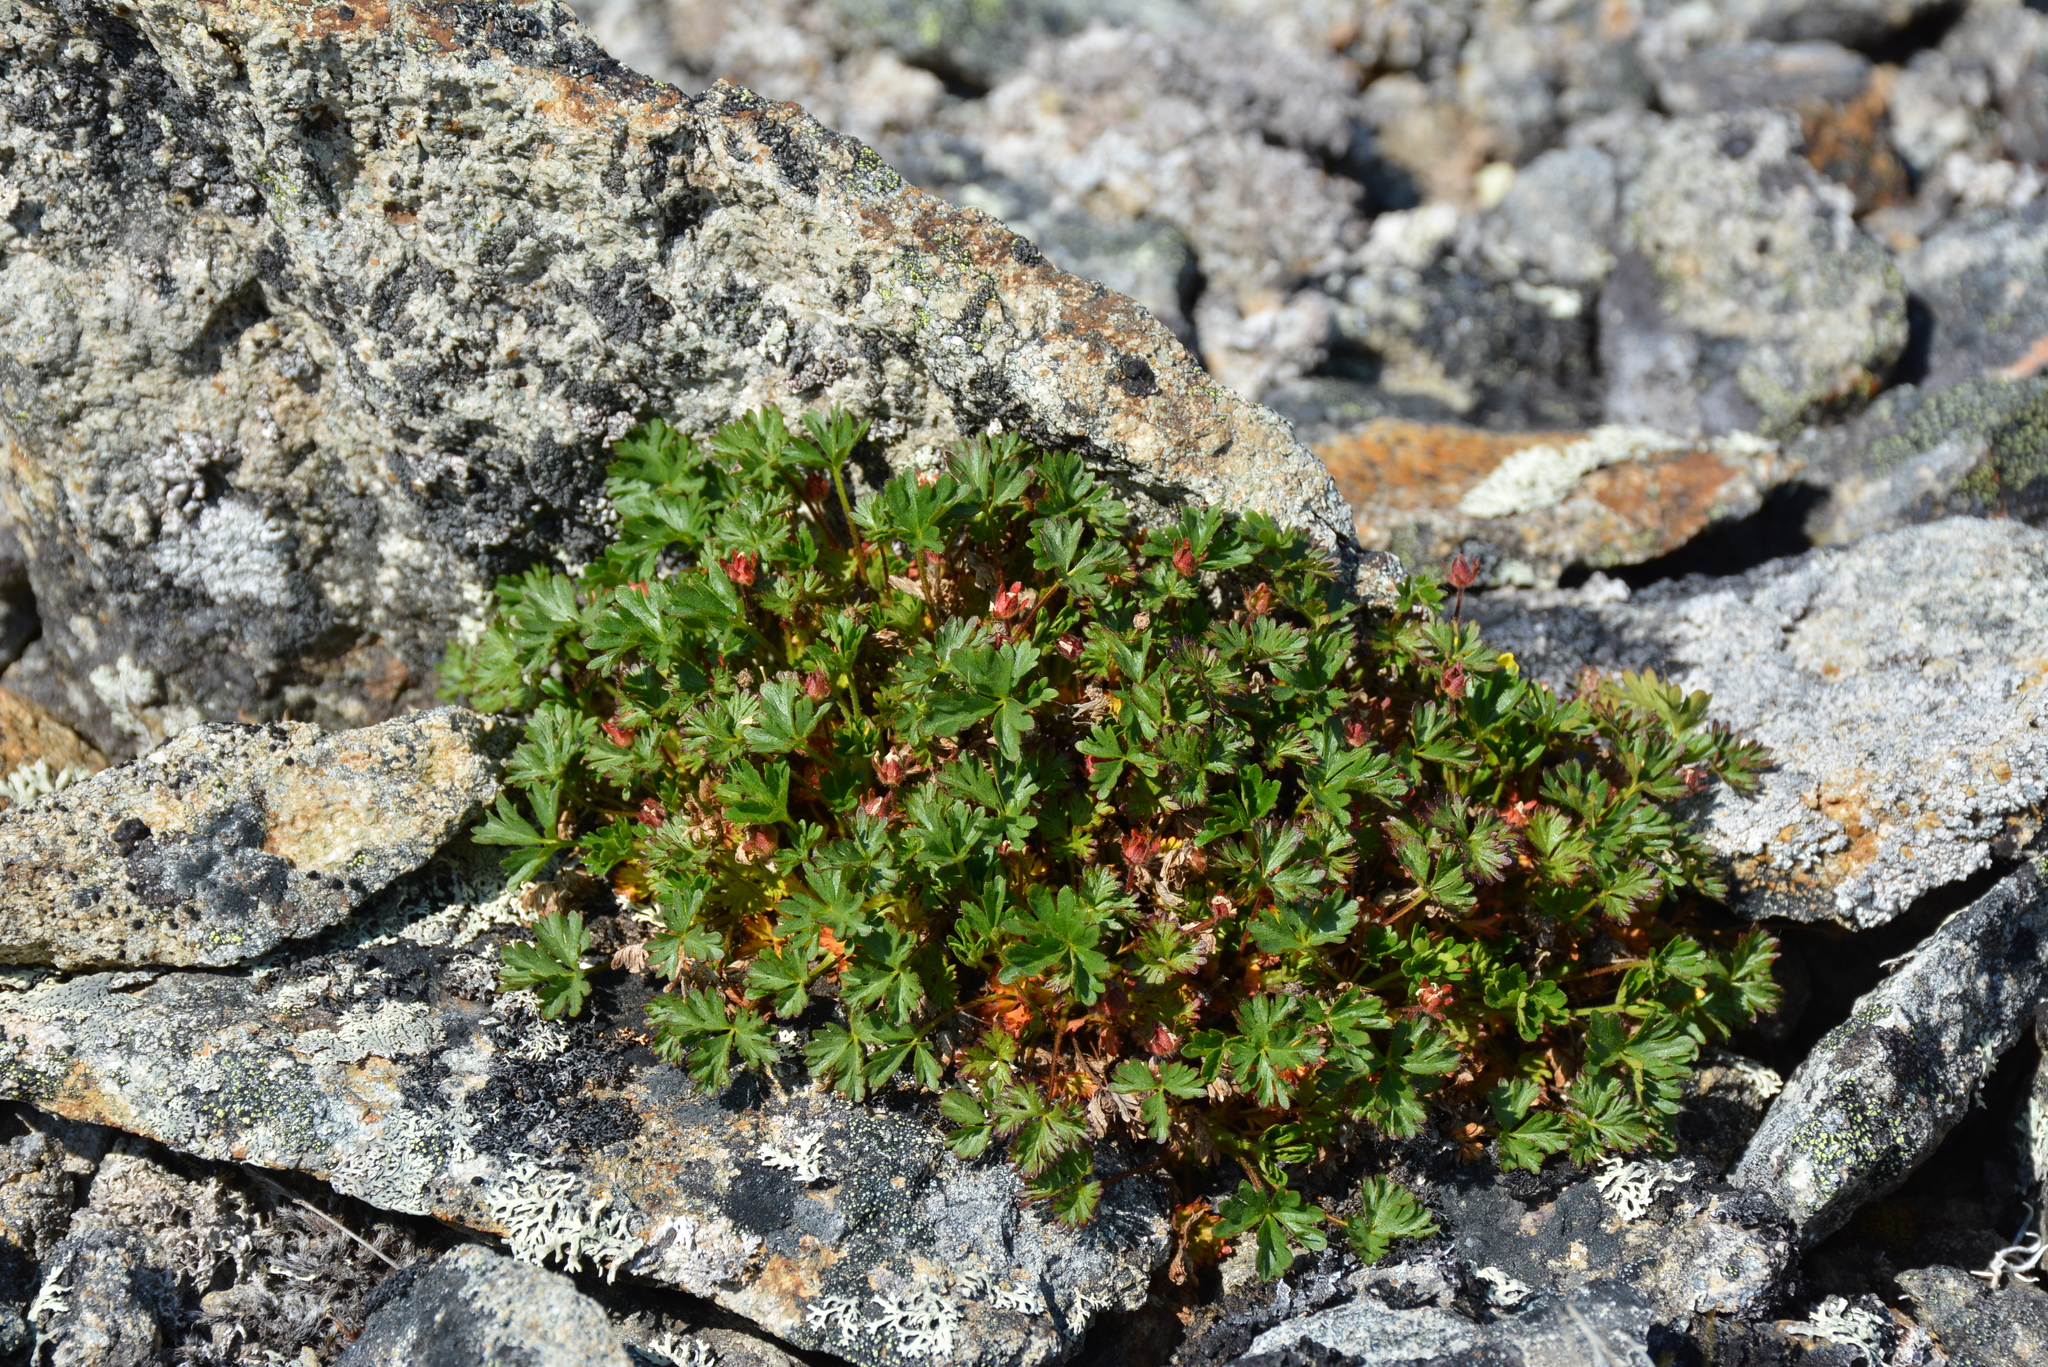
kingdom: Plantae
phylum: Tracheophyta
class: Magnoliopsida
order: Rosales
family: Rosaceae
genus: Potentilla
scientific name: Potentilla elegans
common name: Elegant cinquefoil
